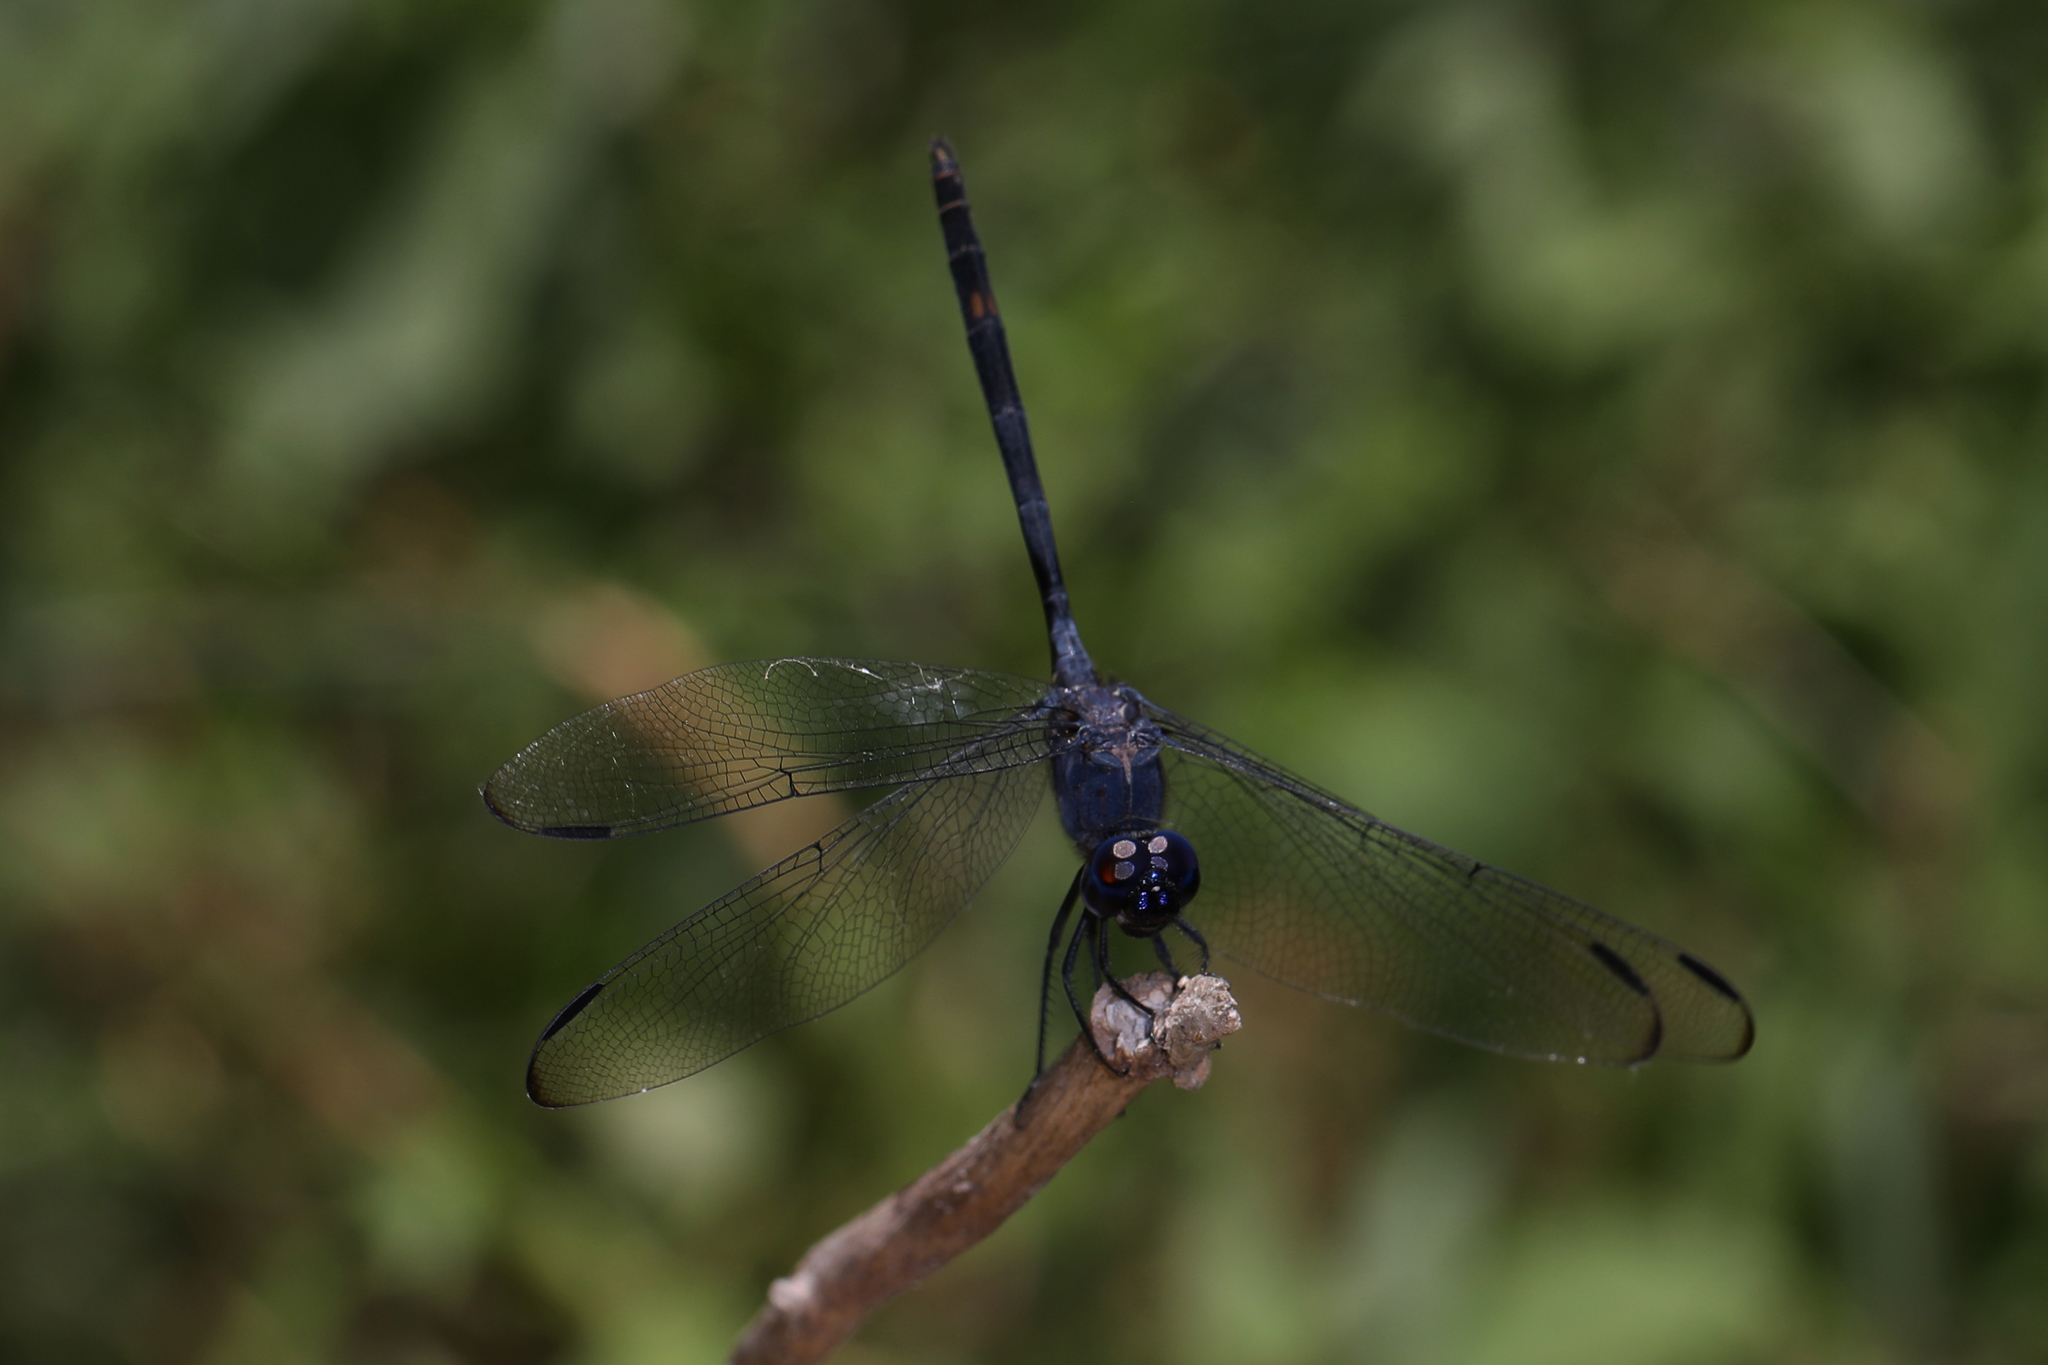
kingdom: Animalia
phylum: Arthropoda
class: Insecta
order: Odonata
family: Libellulidae
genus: Dythemis
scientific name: Dythemis nigrescens
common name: Black setwing
